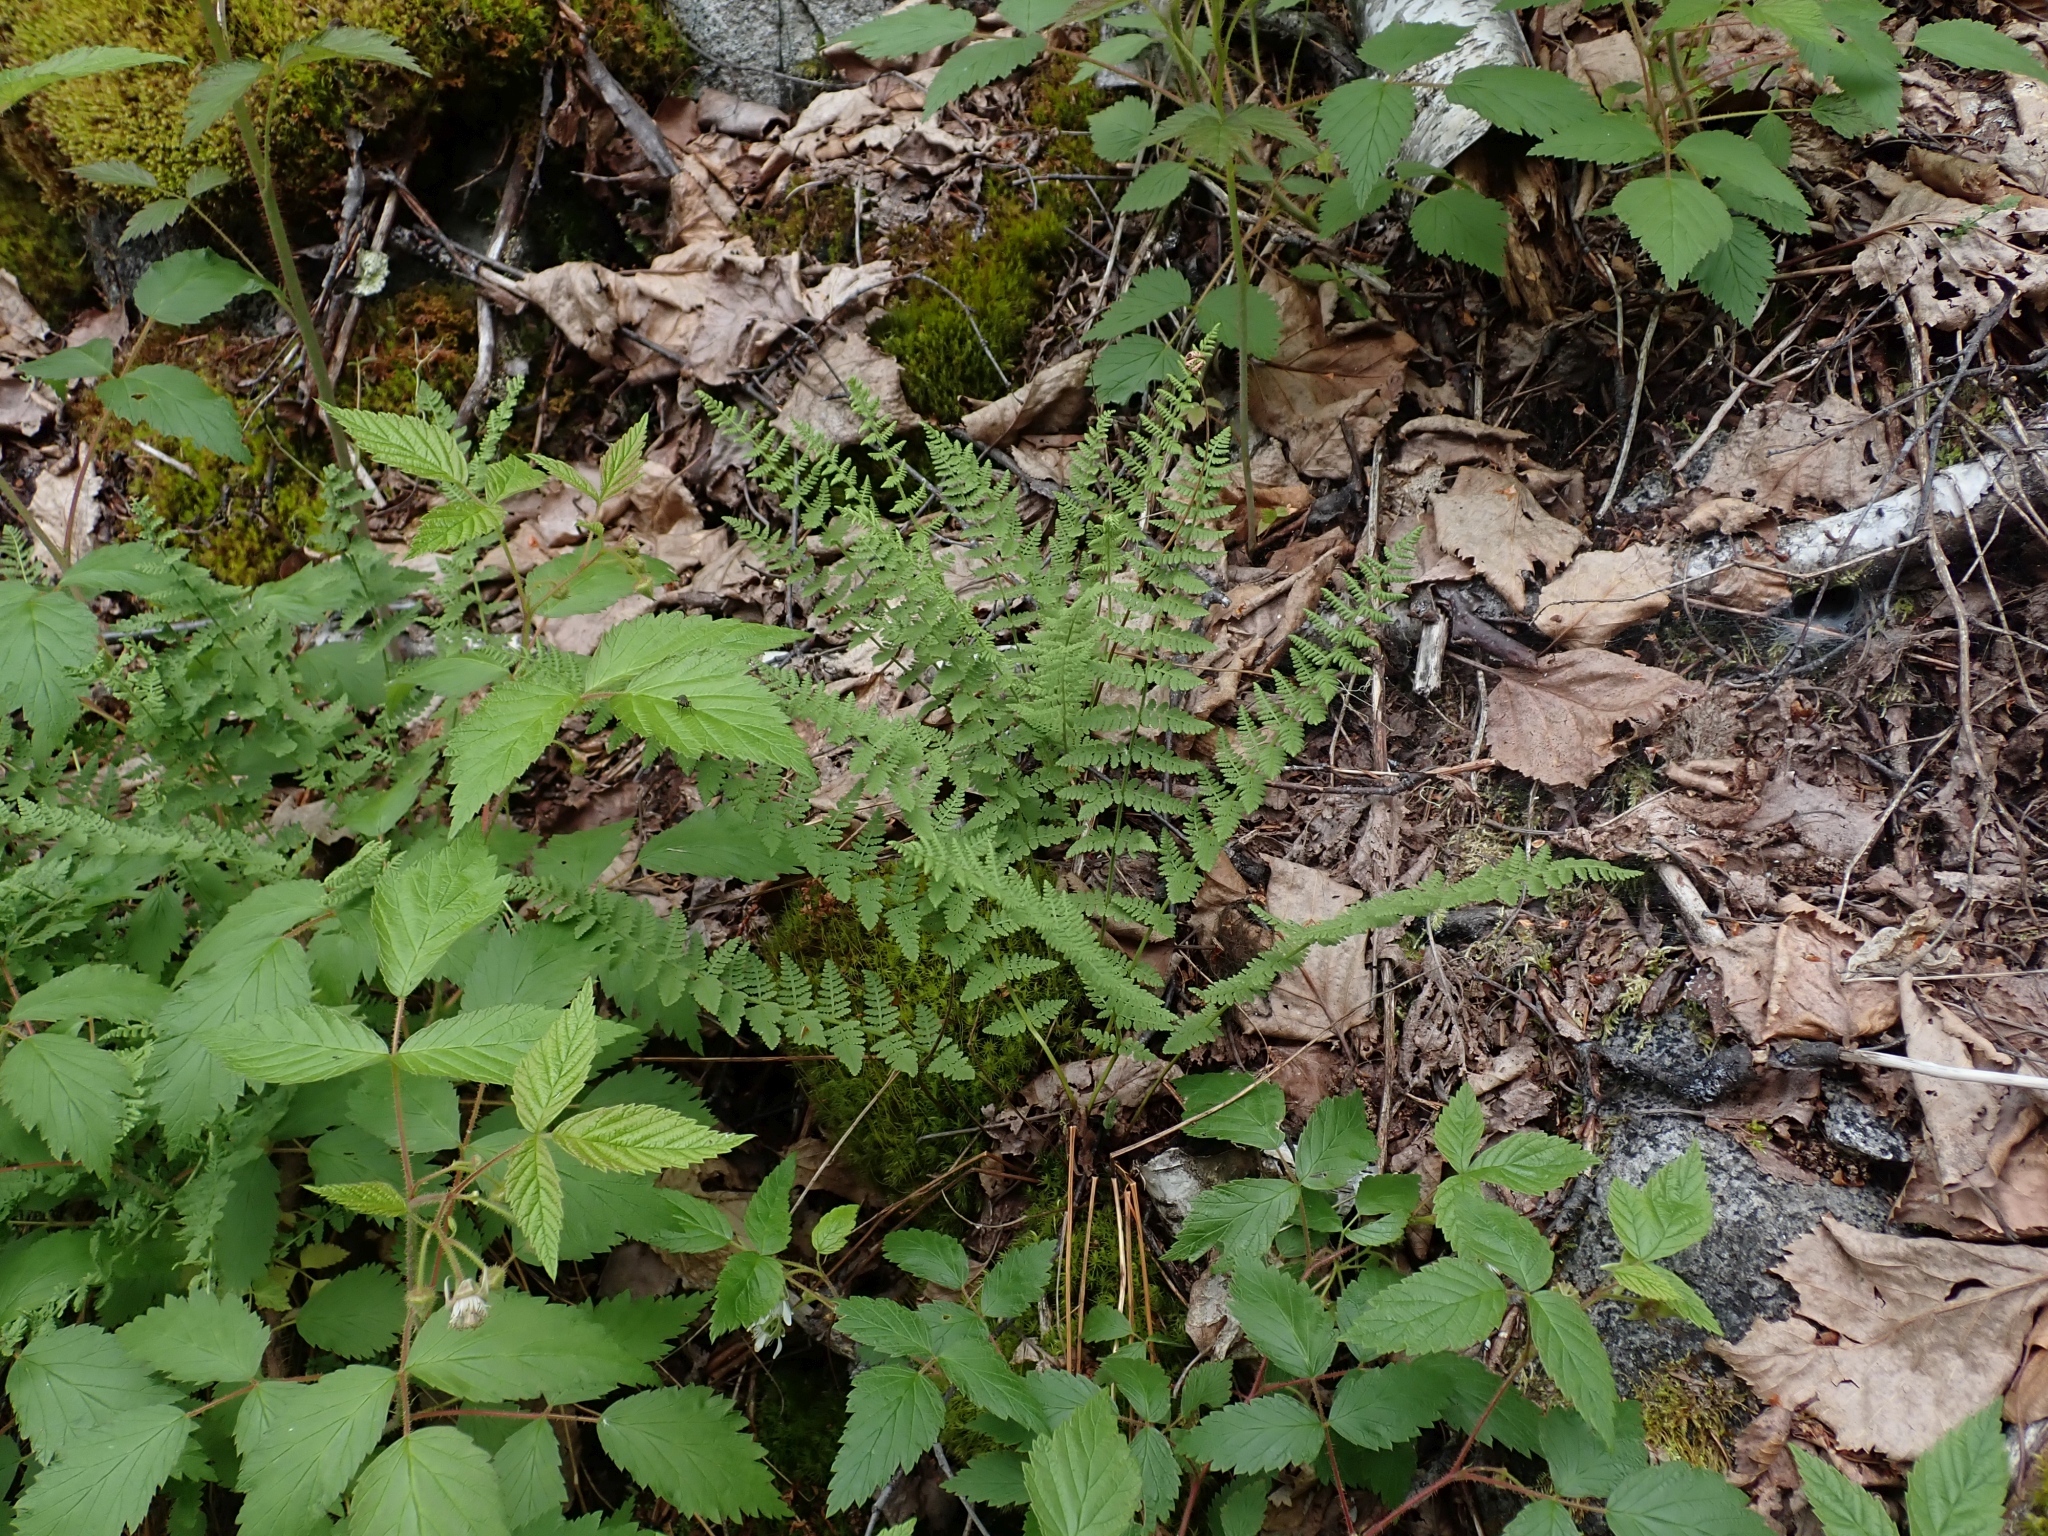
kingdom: Plantae
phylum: Tracheophyta
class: Polypodiopsida
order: Polypodiales
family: Woodsiaceae
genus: Physematium
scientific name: Physematium scopulinum
